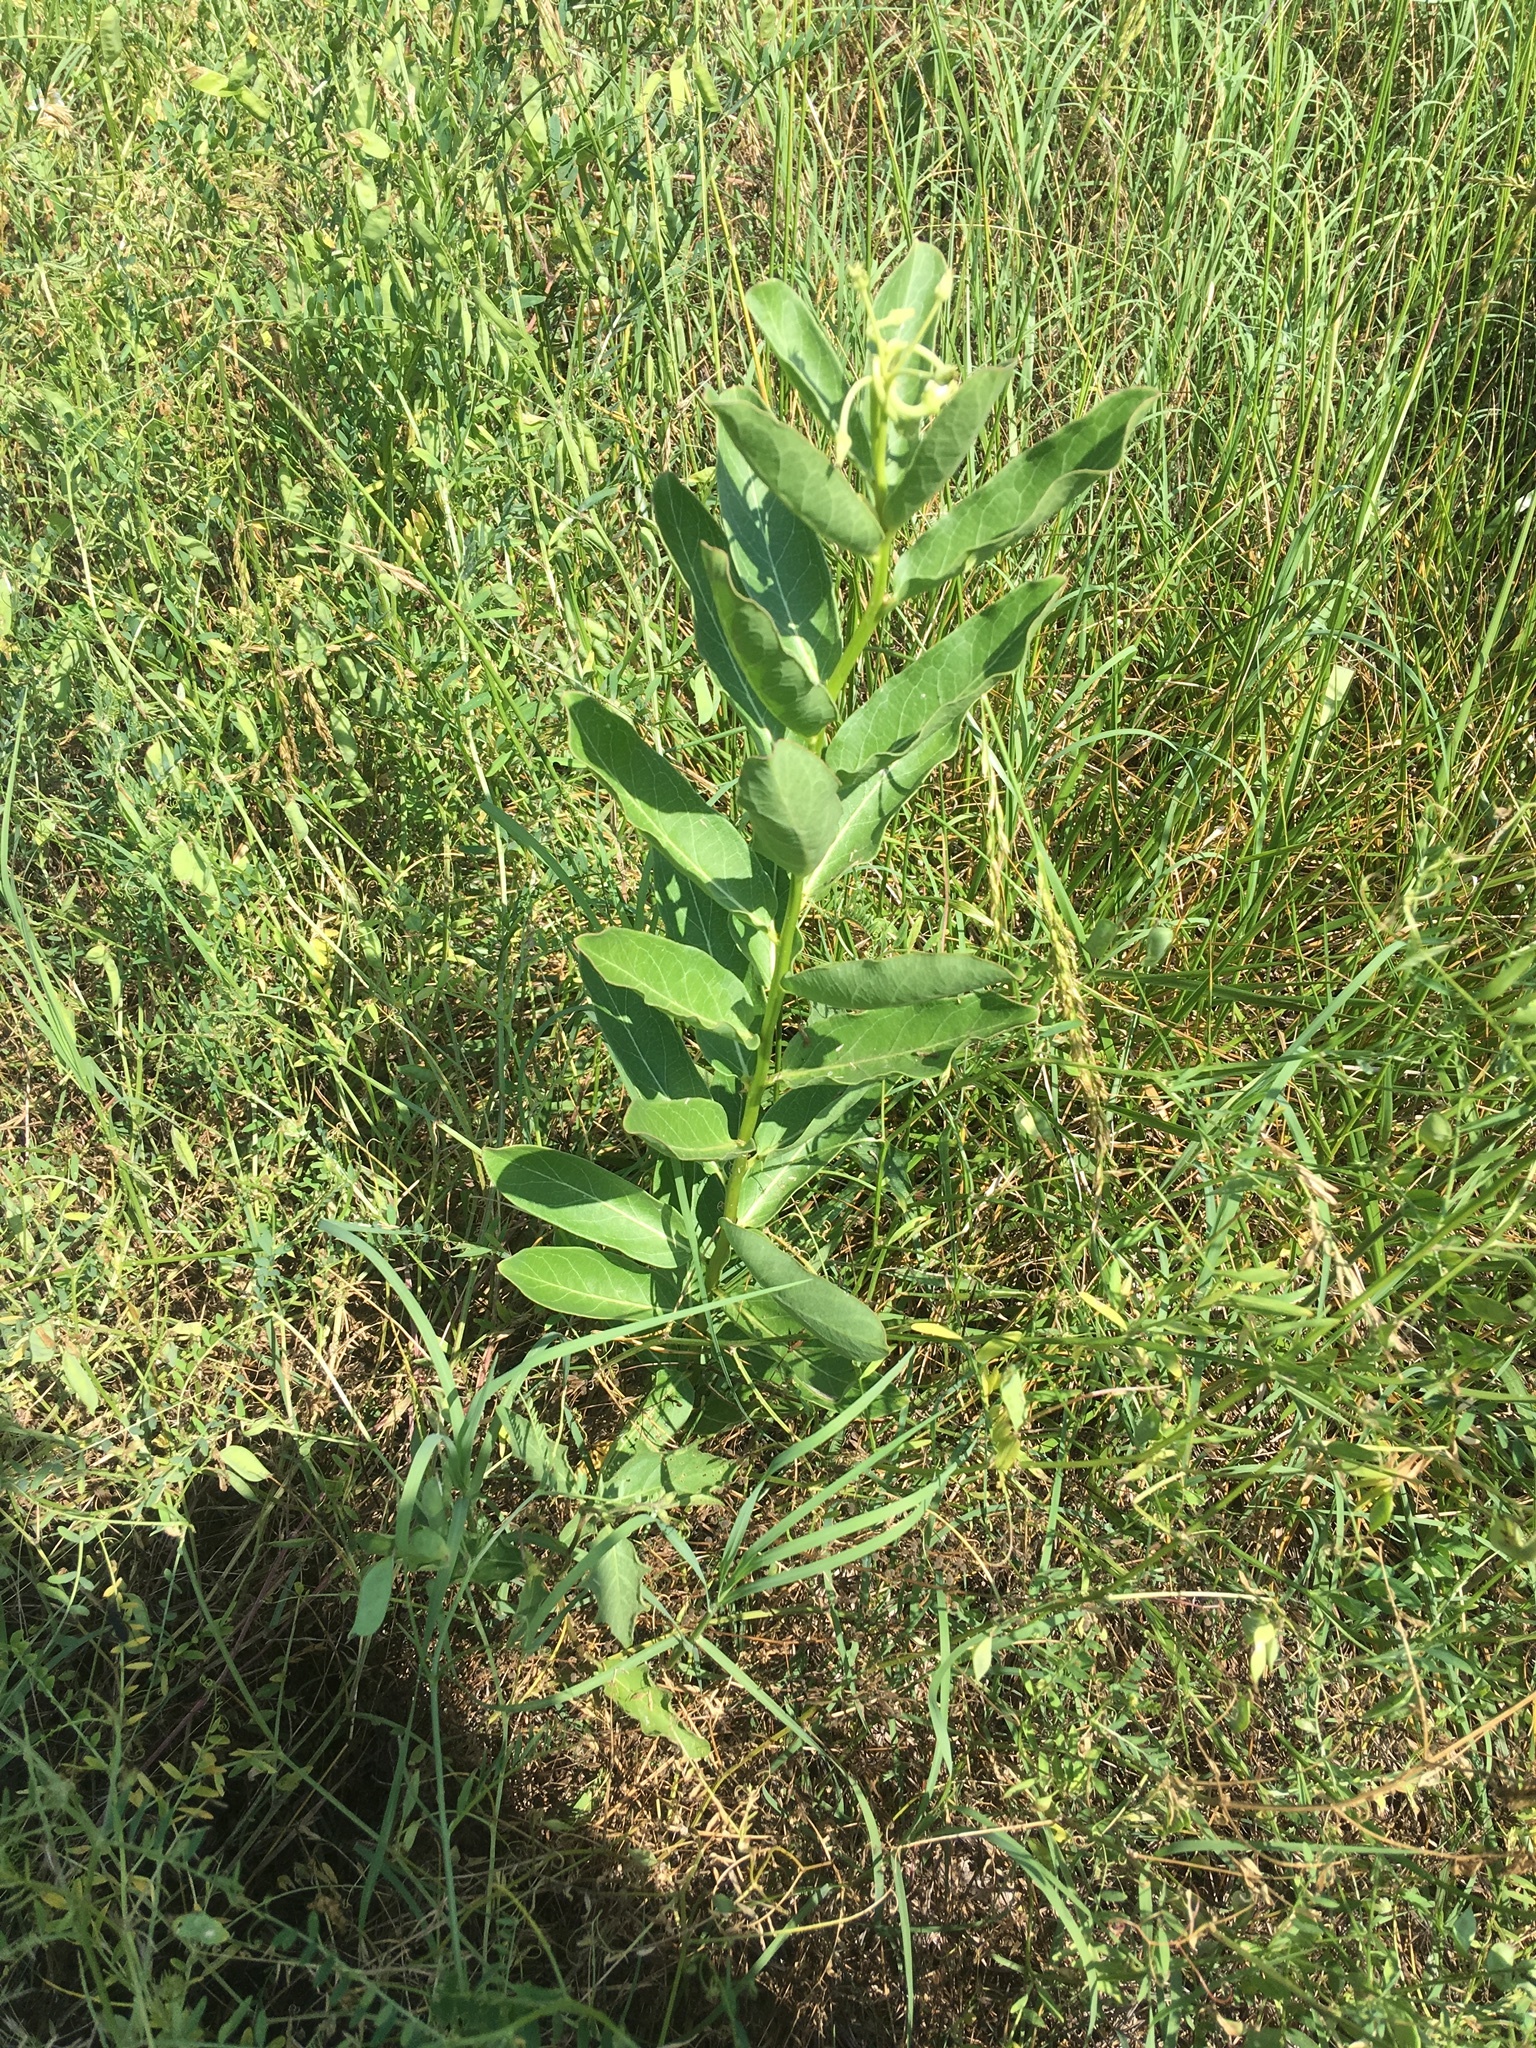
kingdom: Plantae
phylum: Tracheophyta
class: Magnoliopsida
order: Gentianales
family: Apocynaceae
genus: Asclepias
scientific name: Asclepias viridis
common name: Antelope-horns
